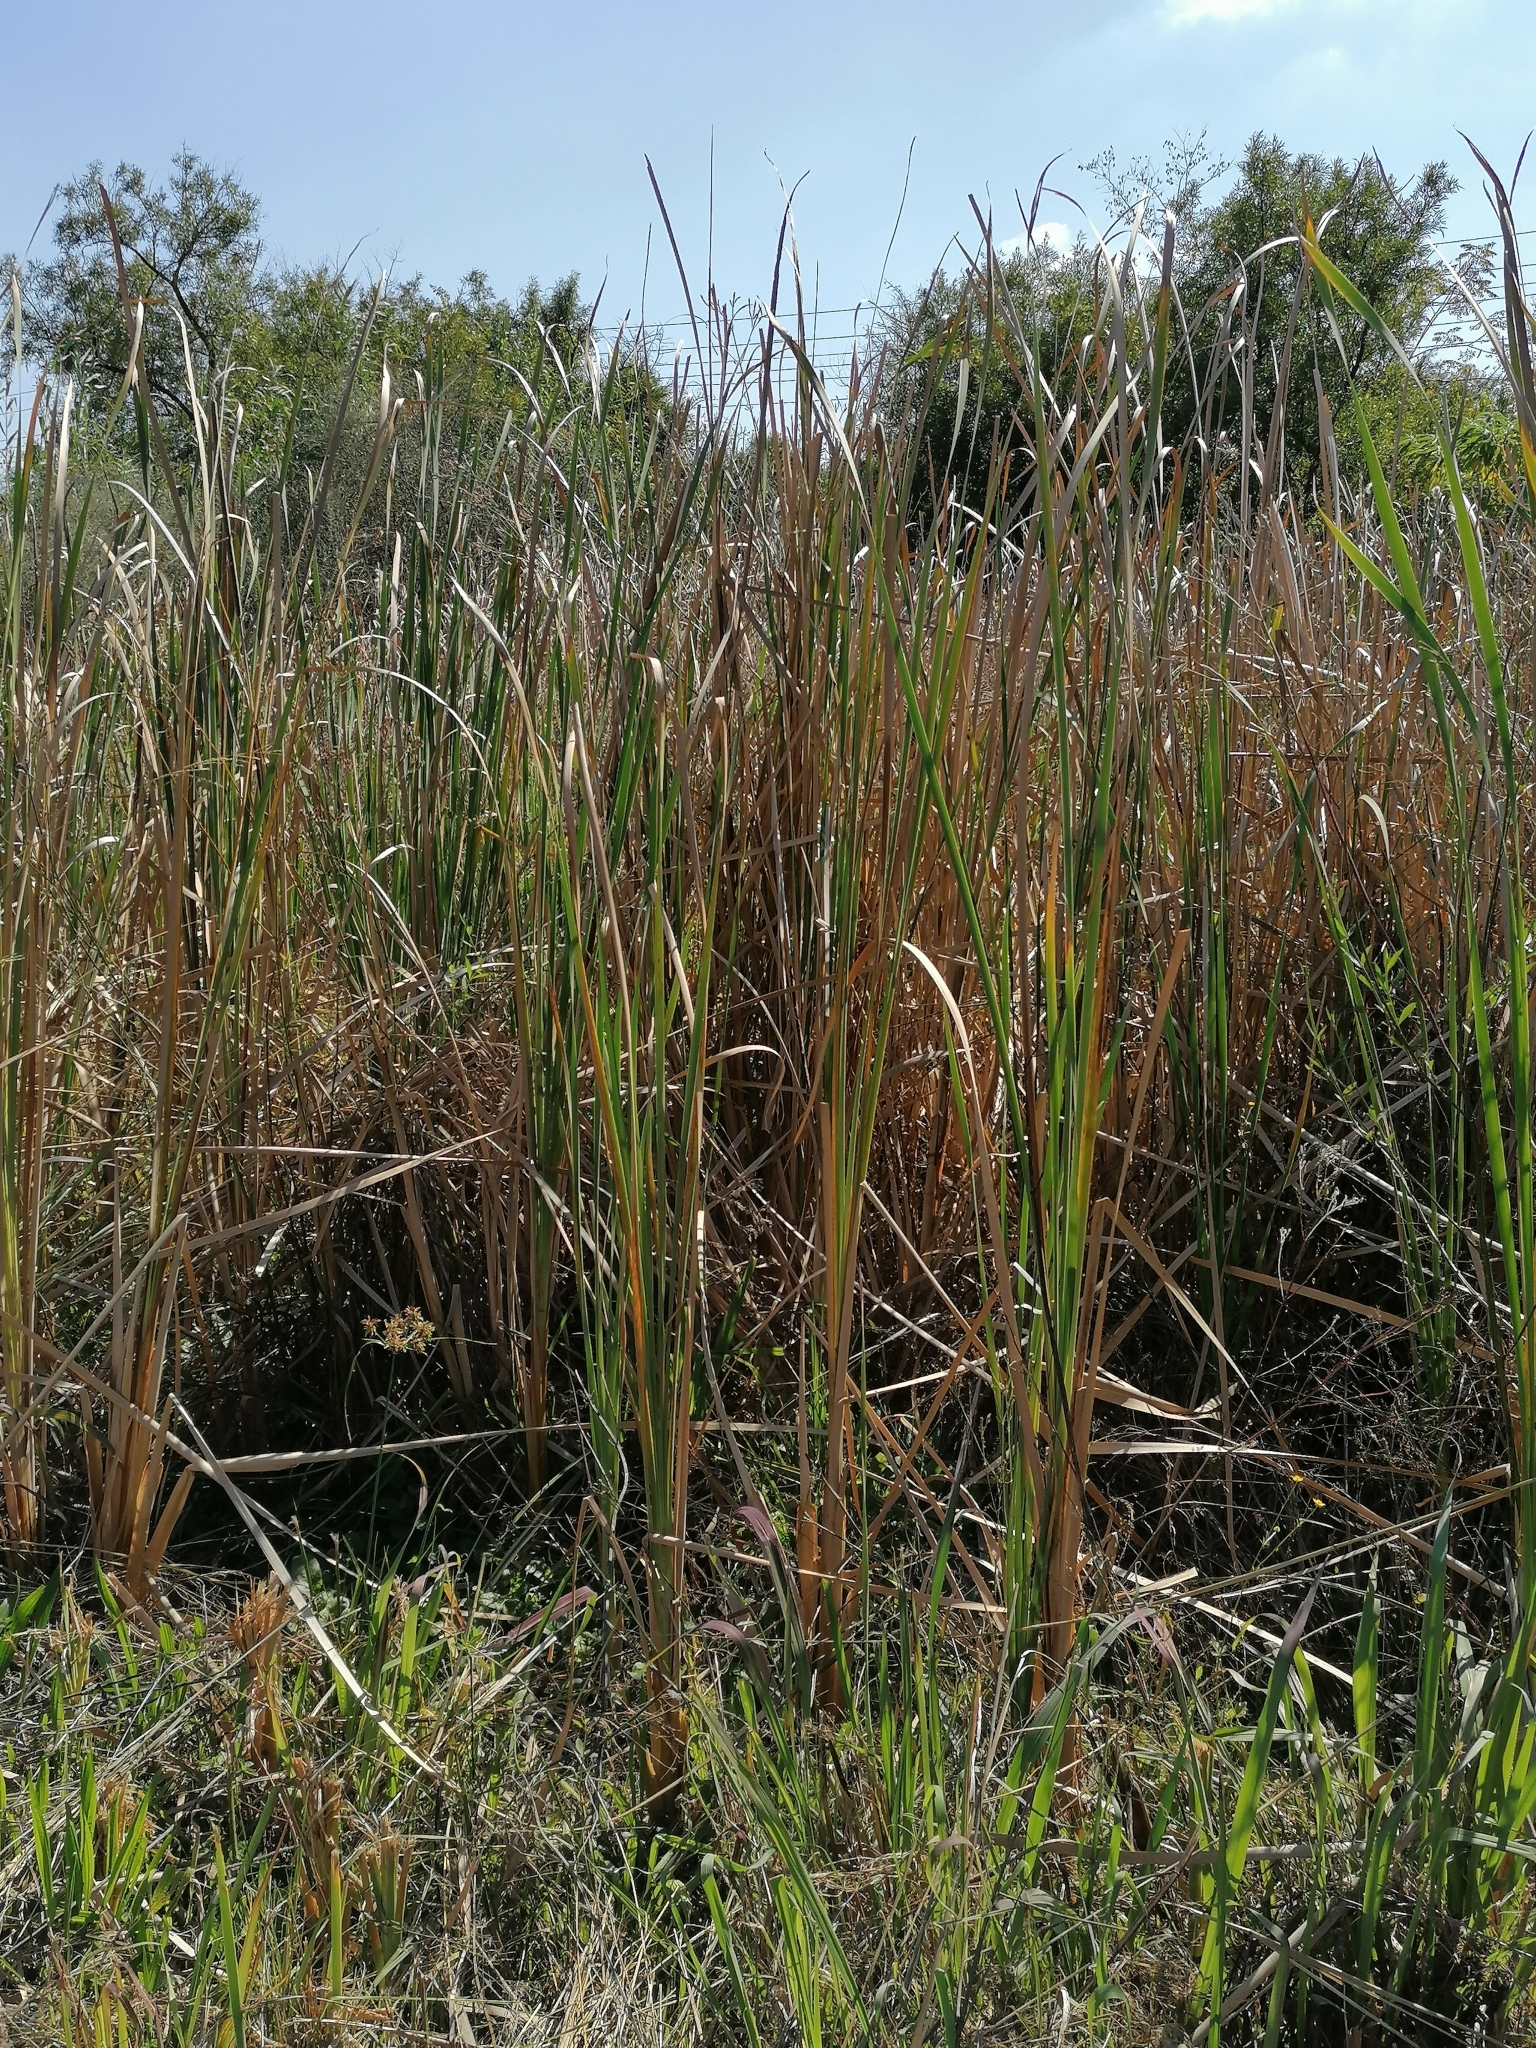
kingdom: Plantae
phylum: Tracheophyta
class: Liliopsida
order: Poales
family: Typhaceae
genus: Typha
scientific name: Typha capensis
